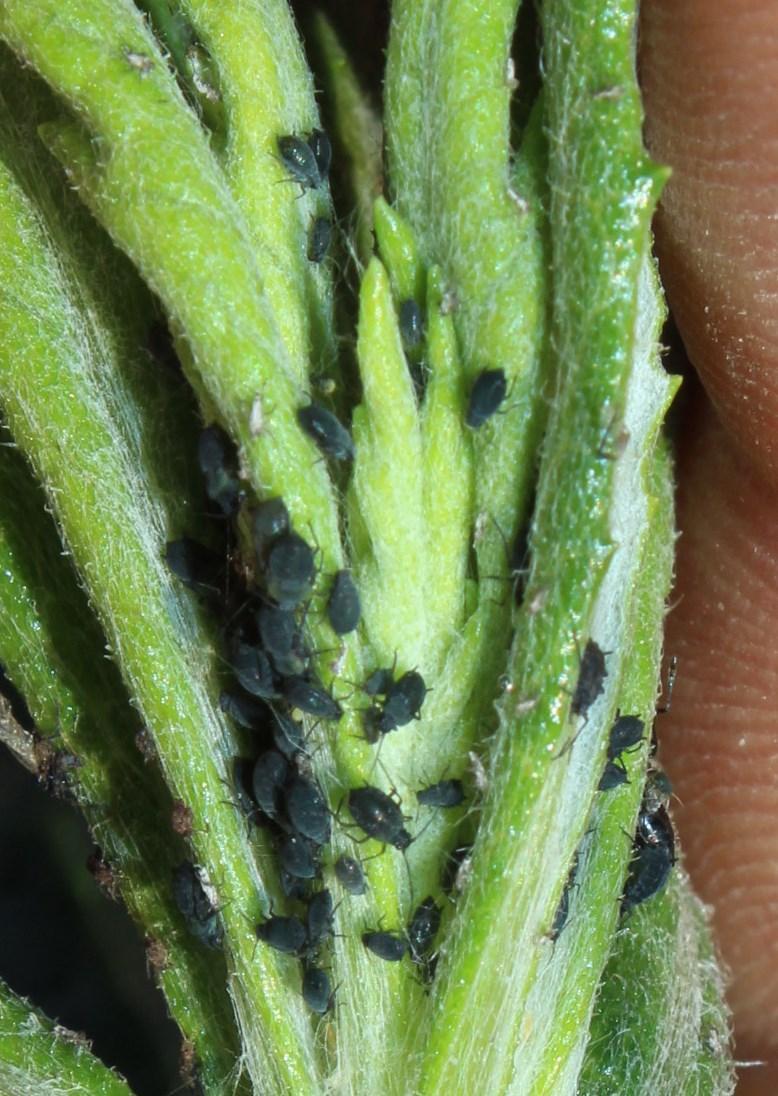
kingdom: Plantae
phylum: Tracheophyta
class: Magnoliopsida
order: Asterales
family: Asteraceae
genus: Senecio
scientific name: Senecio pterophorus
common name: Shoddy ragwort
